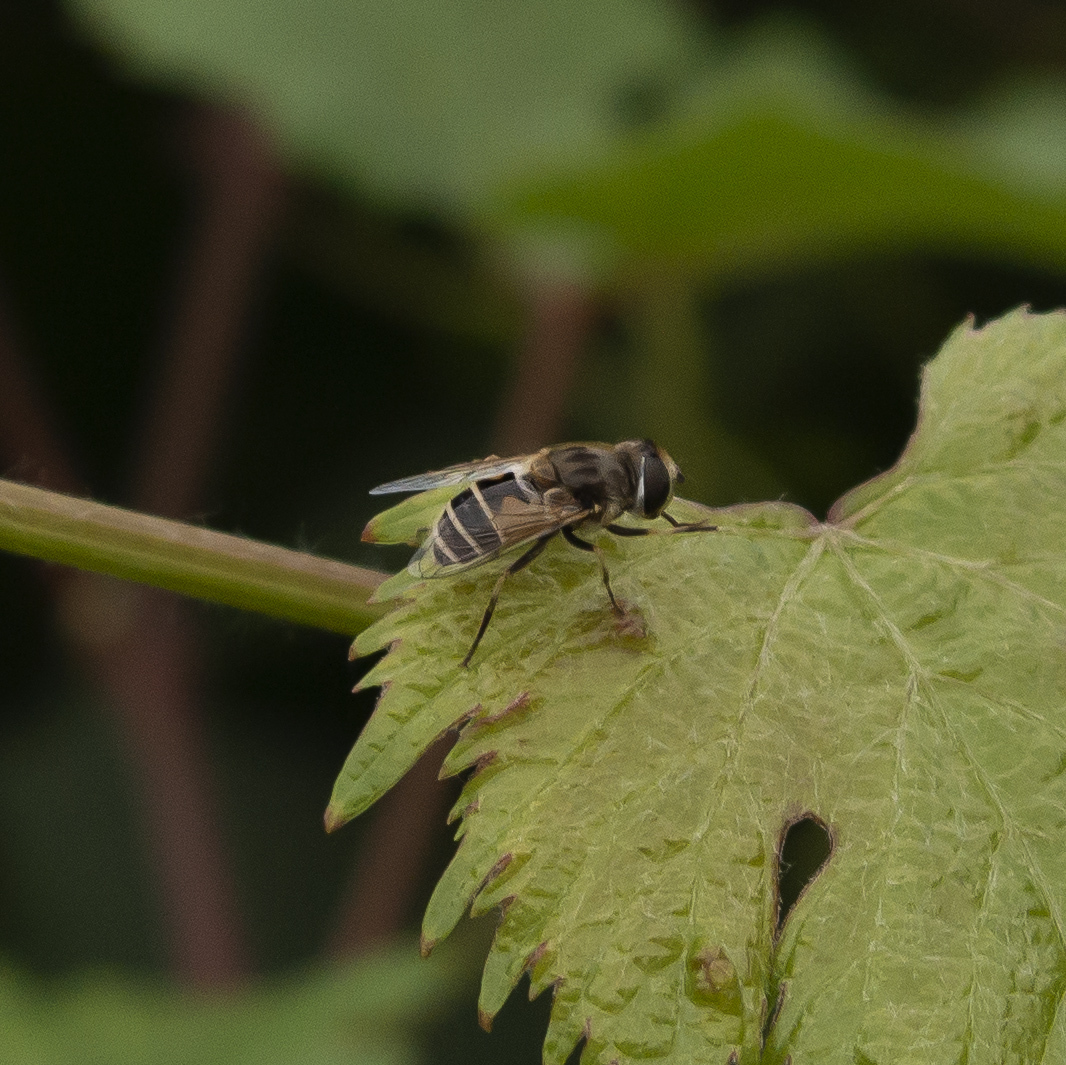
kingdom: Animalia
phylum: Arthropoda
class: Insecta
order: Diptera
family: Syrphidae
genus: Eristalis
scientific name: Eristalis arbustorum
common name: Hover fly
